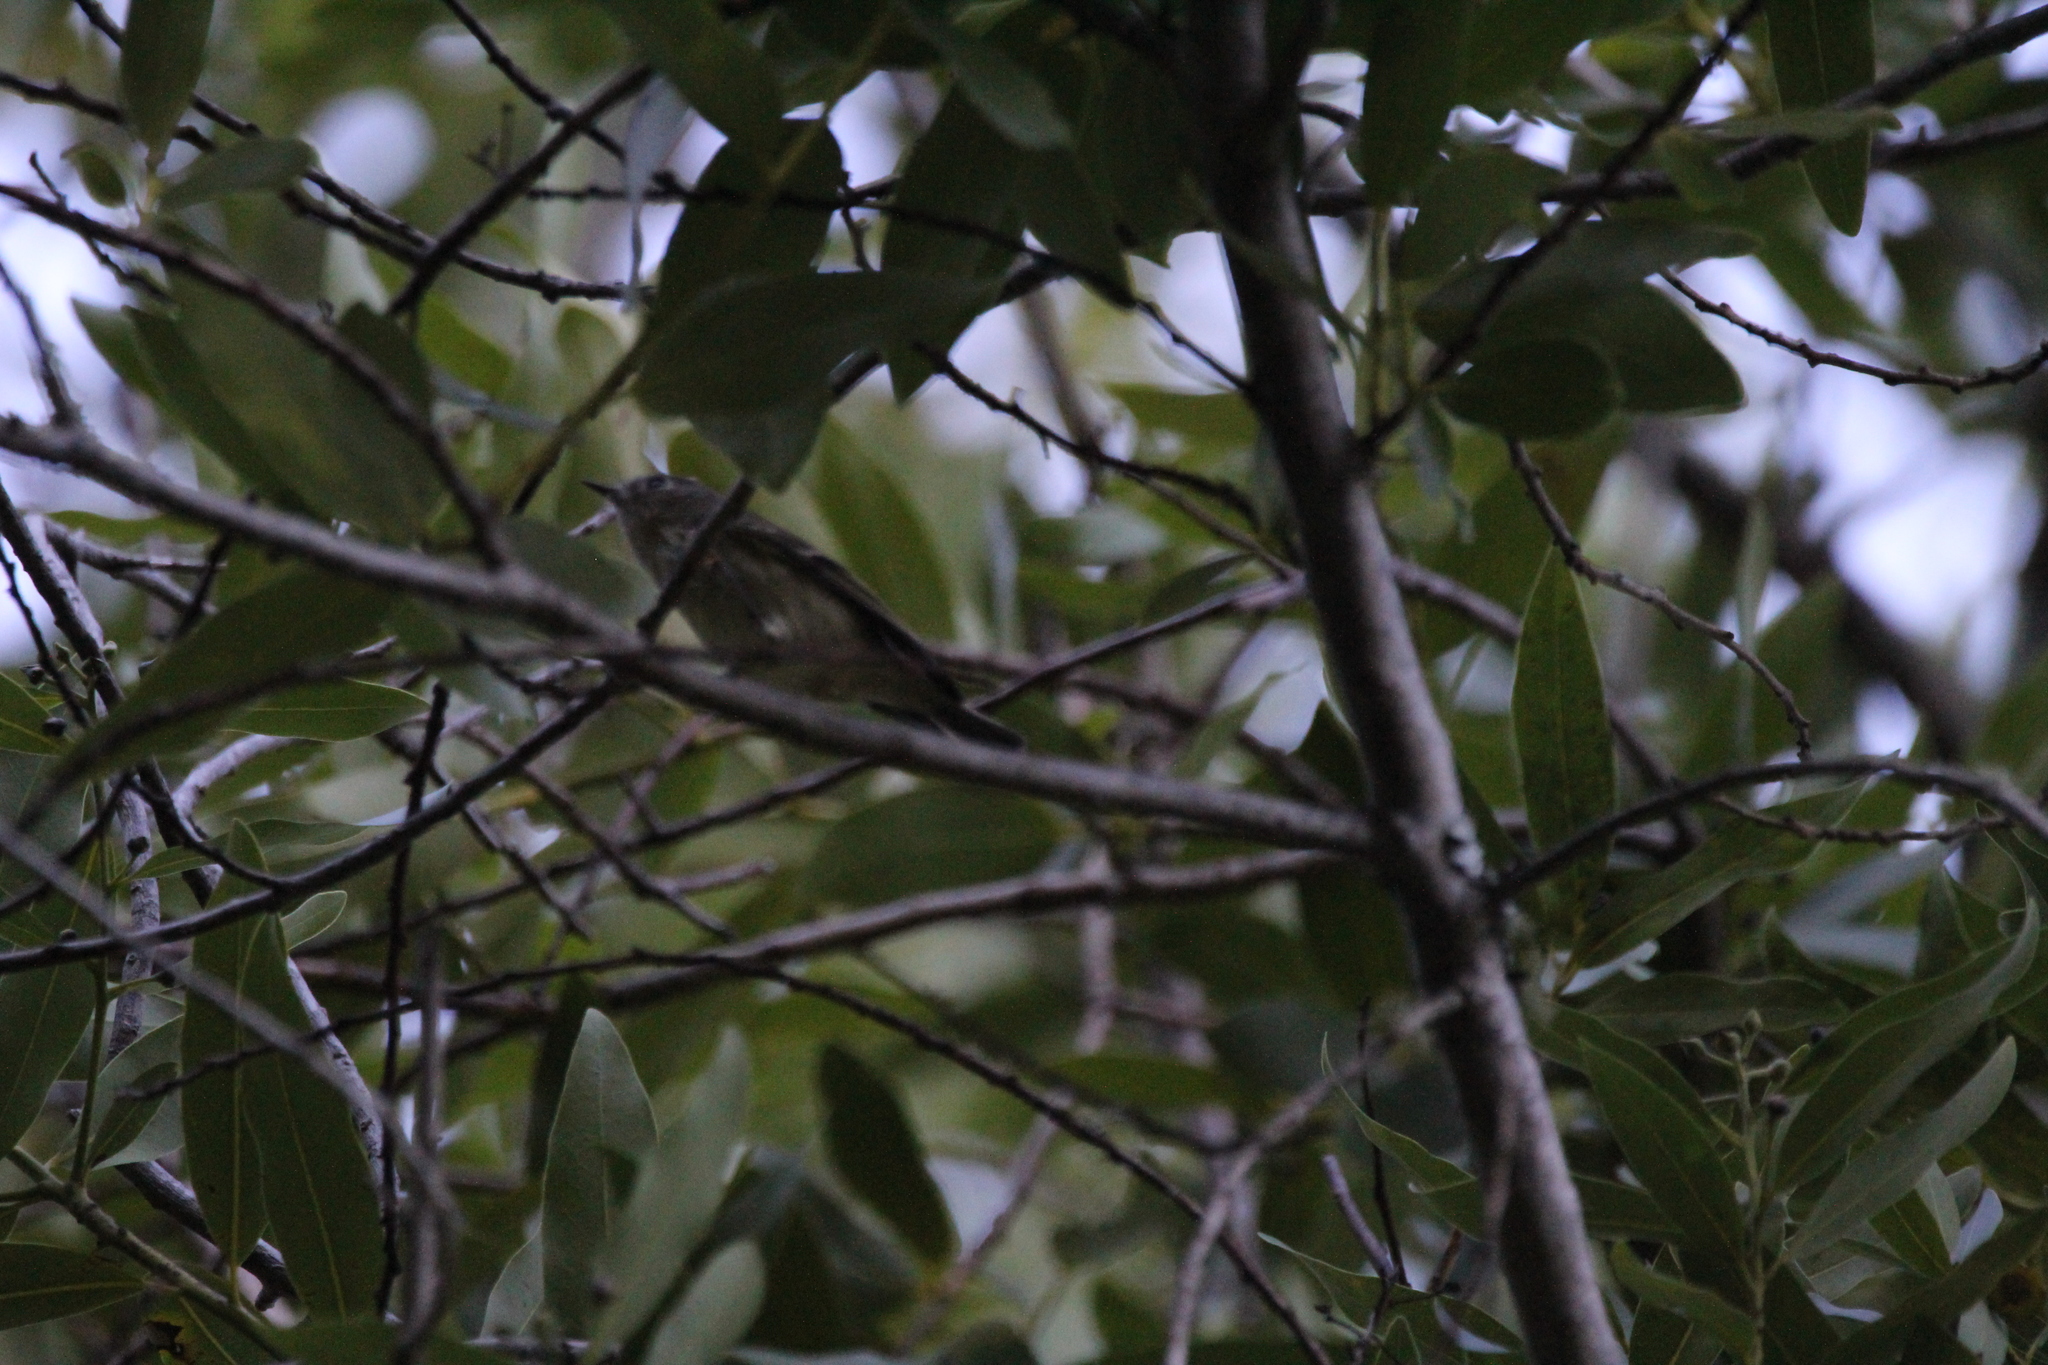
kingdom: Animalia
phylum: Chordata
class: Aves
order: Passeriformes
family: Regulidae
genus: Regulus
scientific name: Regulus calendula
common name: Ruby-crowned kinglet
